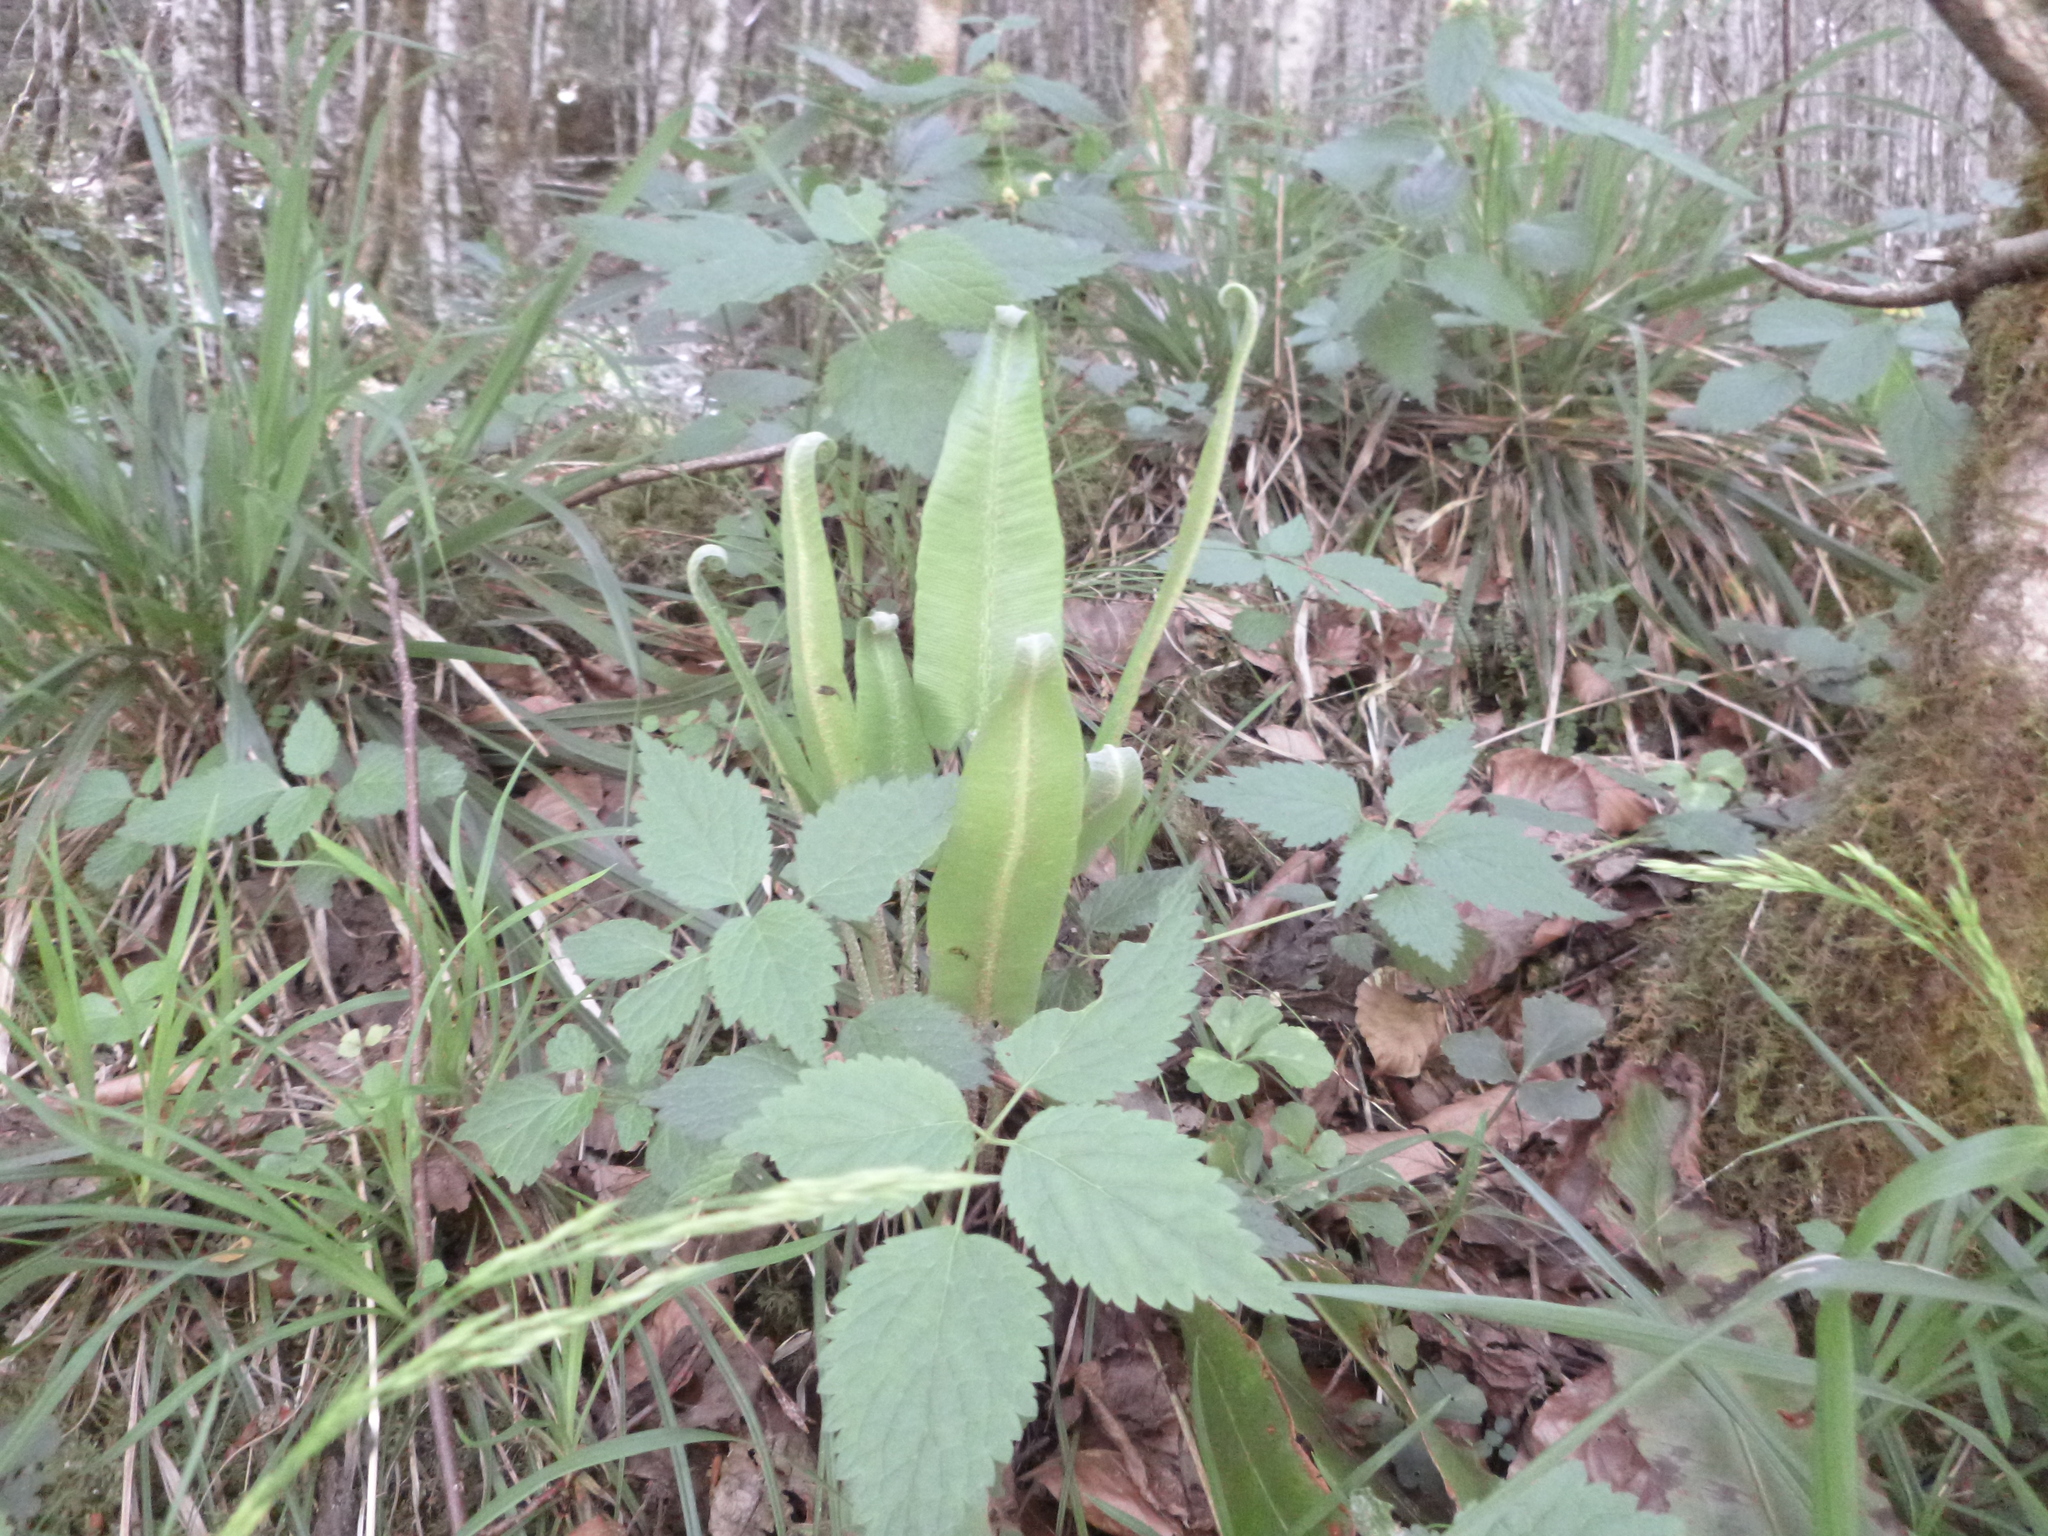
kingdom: Plantae
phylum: Tracheophyta
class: Polypodiopsida
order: Polypodiales
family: Aspleniaceae
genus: Asplenium
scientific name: Asplenium scolopendrium
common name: Hart's-tongue fern
